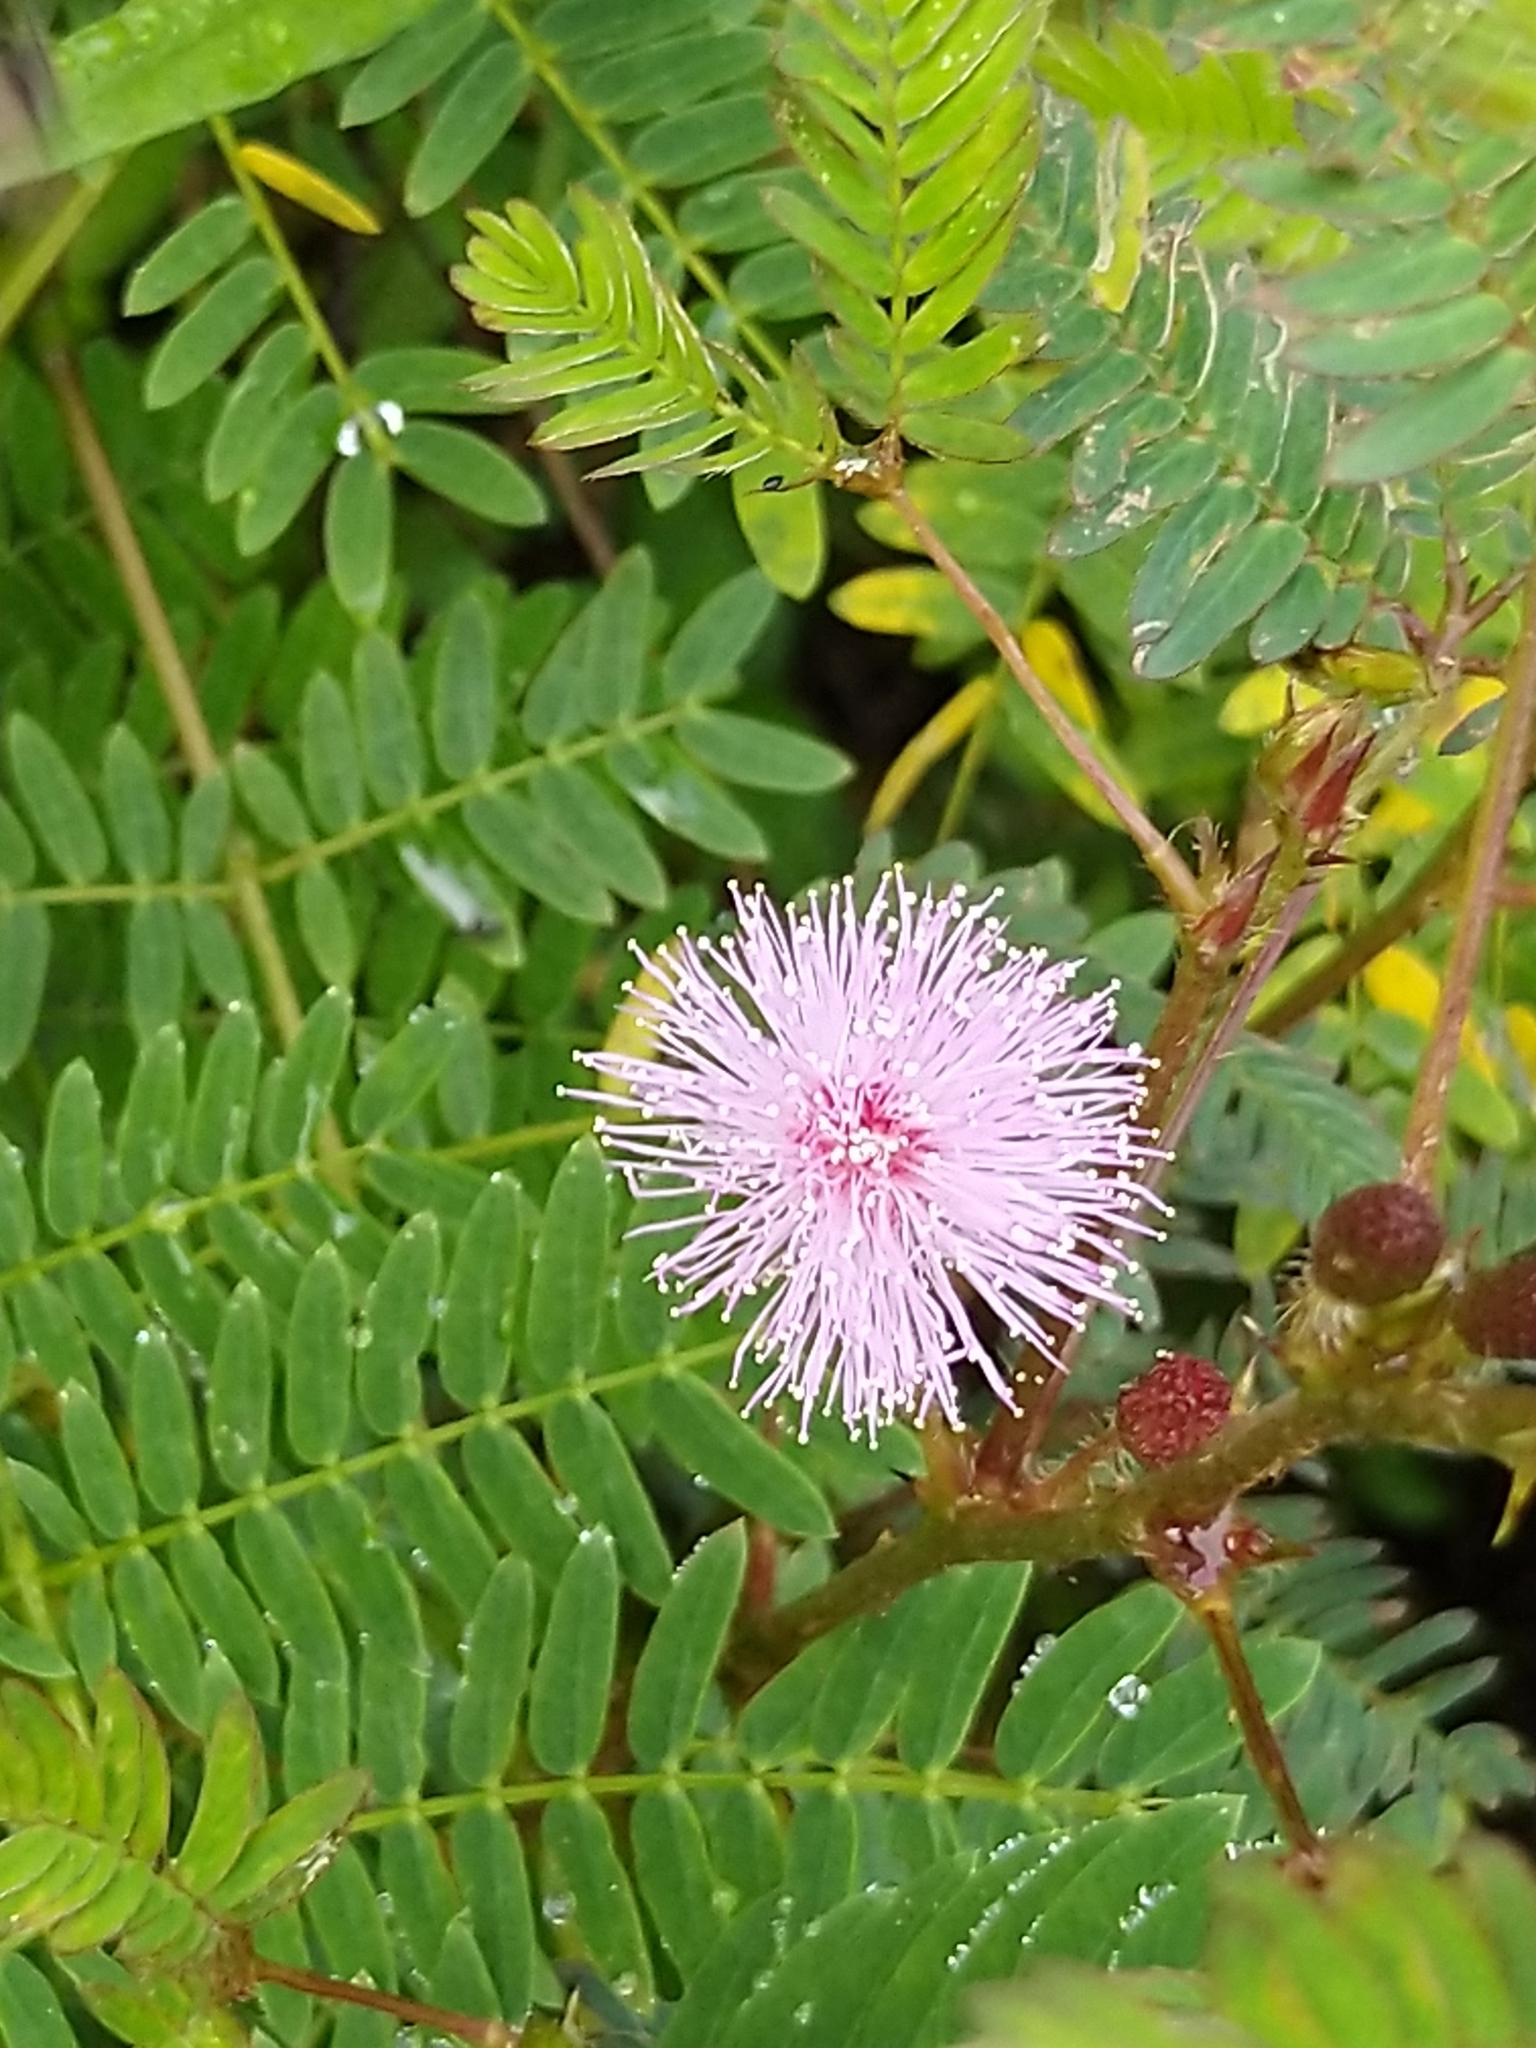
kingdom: Plantae
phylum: Tracheophyta
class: Magnoliopsida
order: Fabales
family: Fabaceae
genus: Mimosa
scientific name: Mimosa pudica
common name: Sensitive plant
